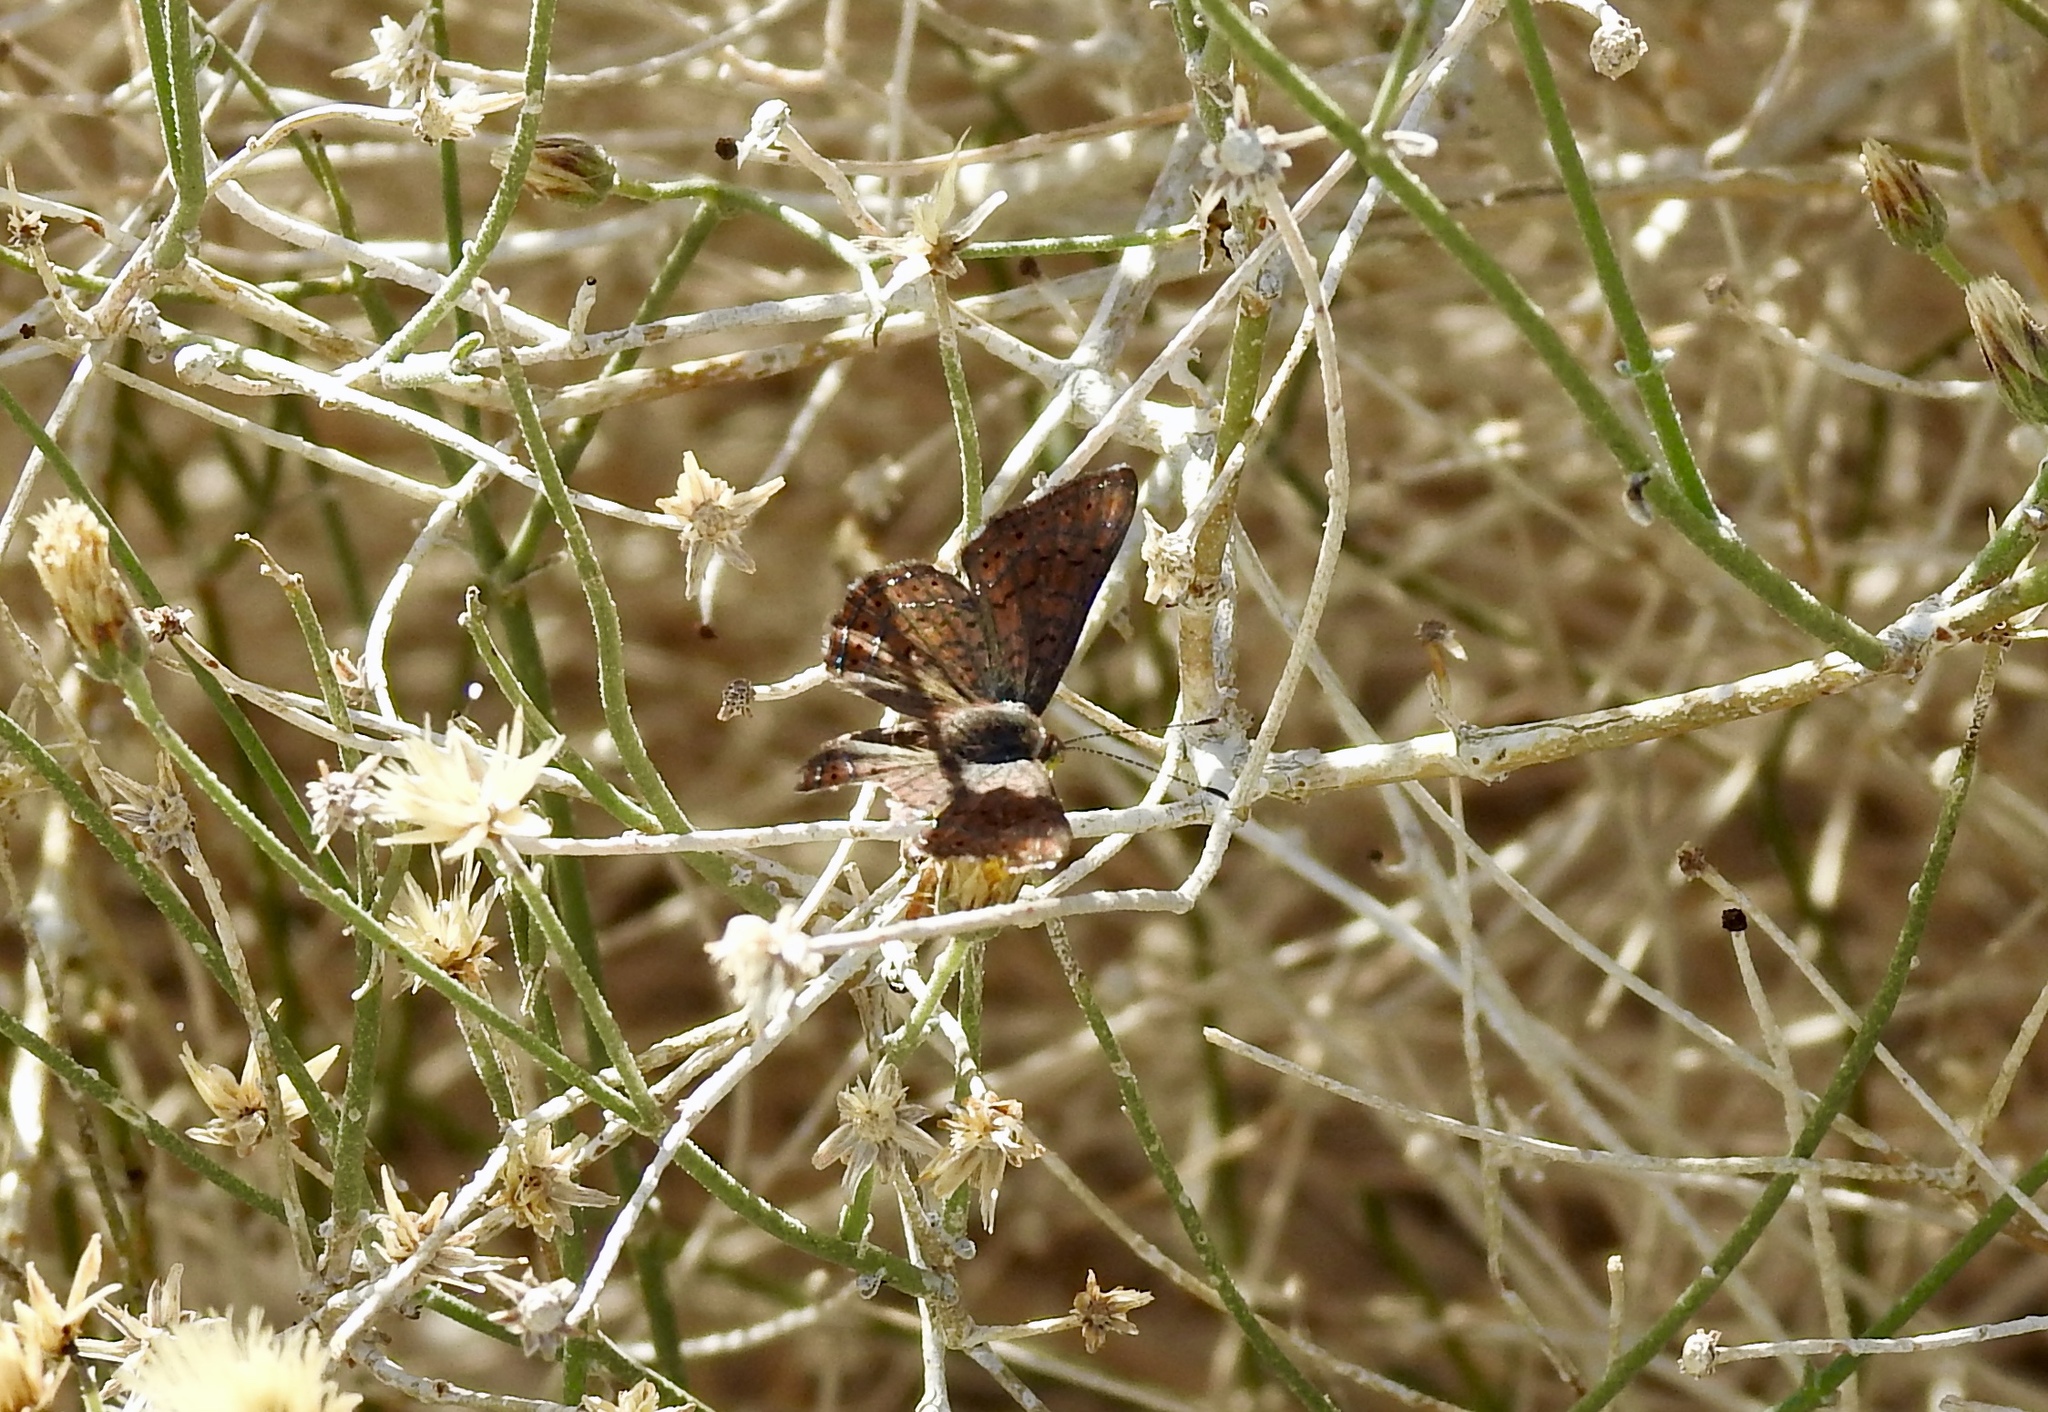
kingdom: Animalia
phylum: Arthropoda
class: Insecta
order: Lepidoptera
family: Lycaenidae
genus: Emesis
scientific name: Emesis wrighti
